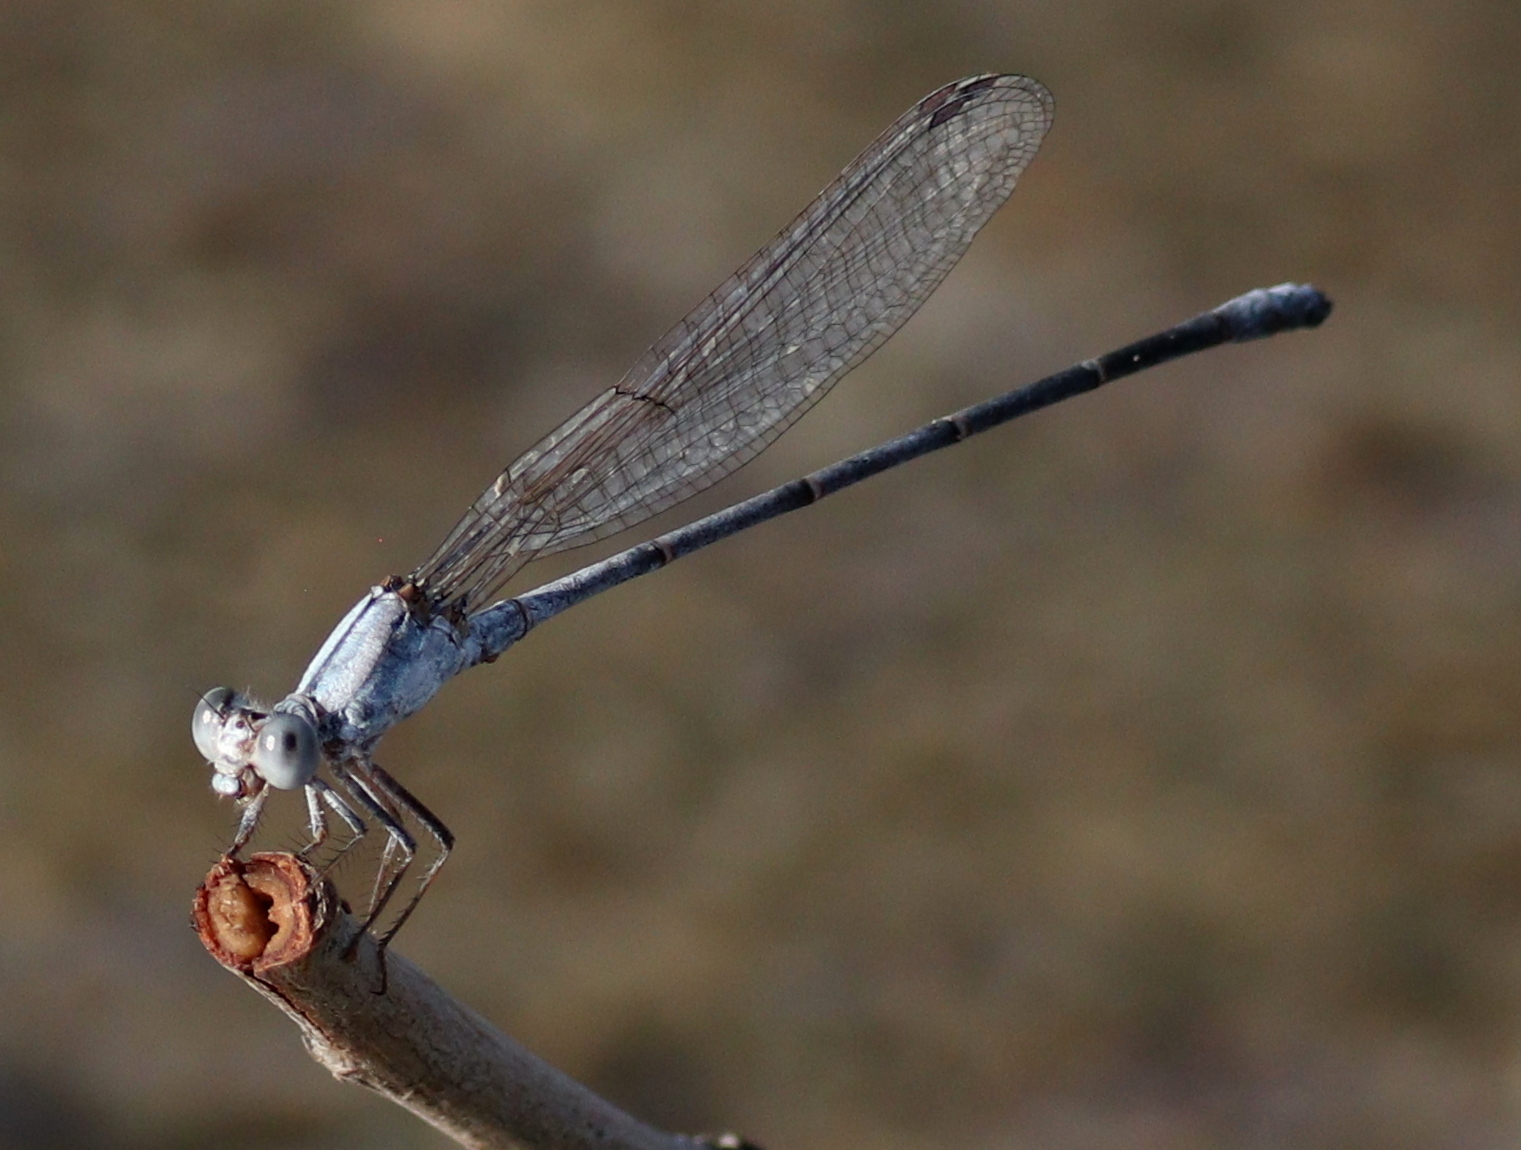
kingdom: Animalia
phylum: Arthropoda
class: Insecta
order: Odonata
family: Coenagrionidae
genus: Argia
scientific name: Argia moesta
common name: Powdered dancer
